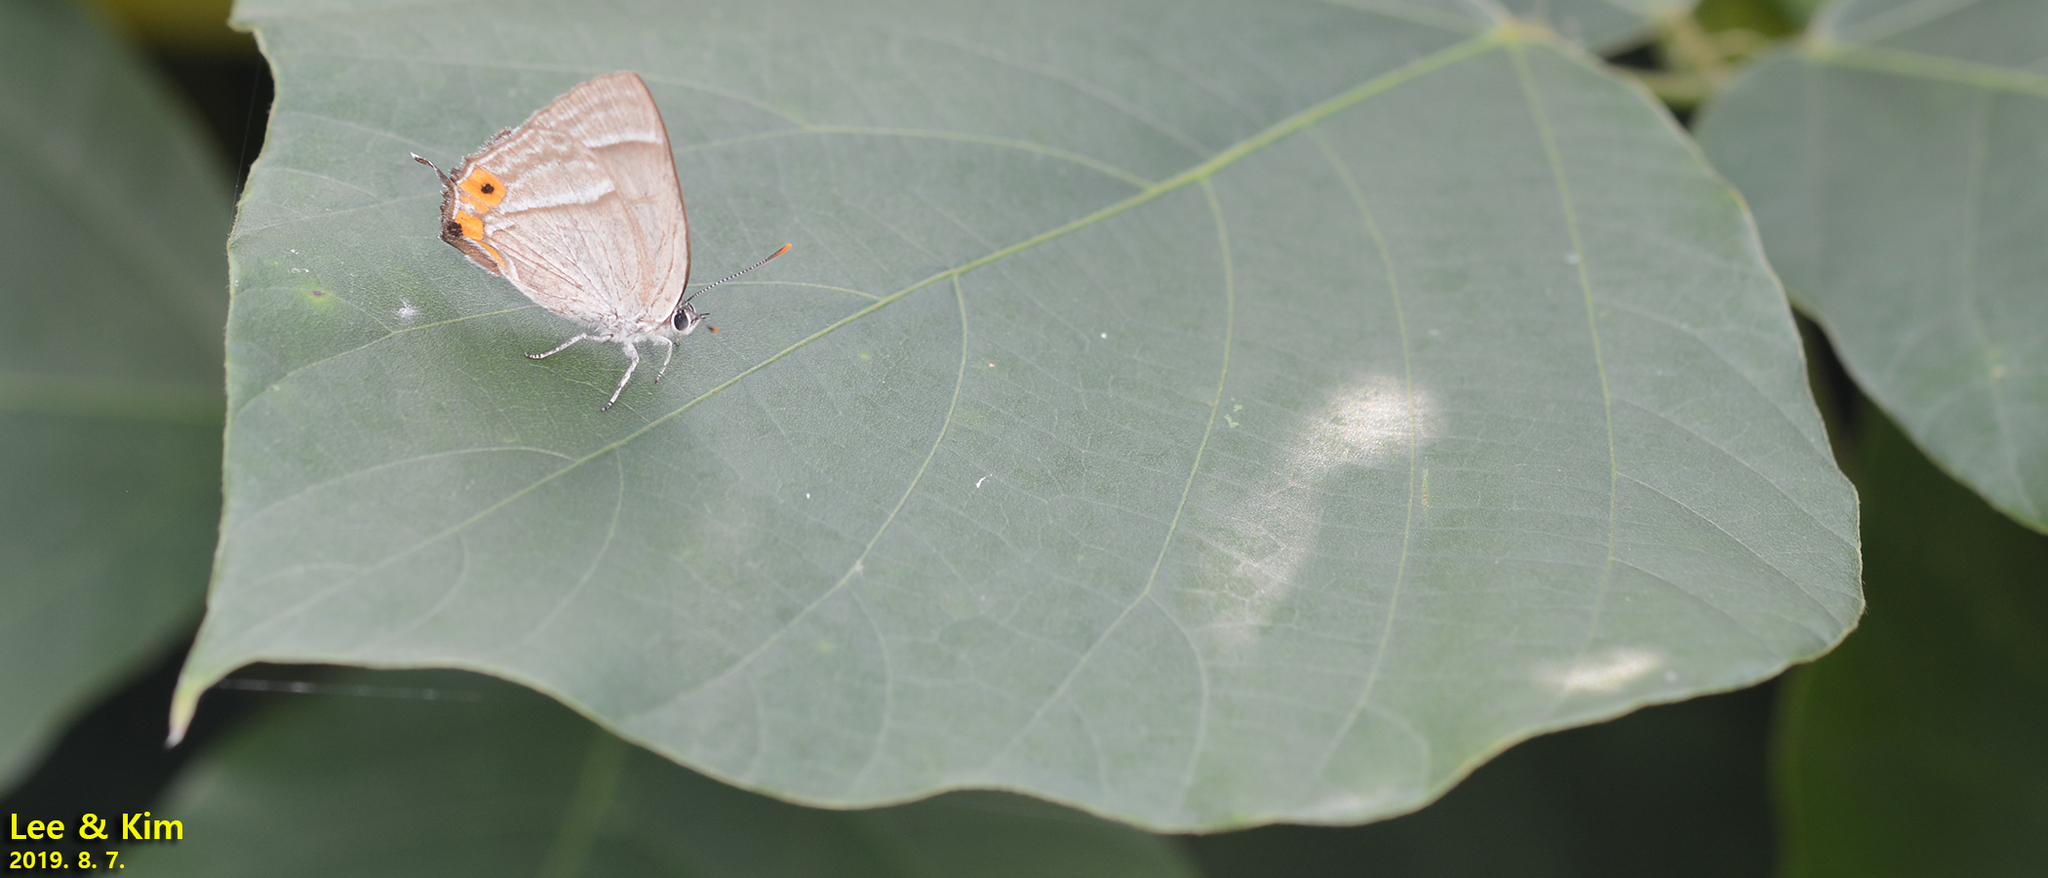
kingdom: Animalia
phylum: Arthropoda
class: Insecta
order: Lepidoptera
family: Lycaenidae
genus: Favonius
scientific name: Favonius cognatus
